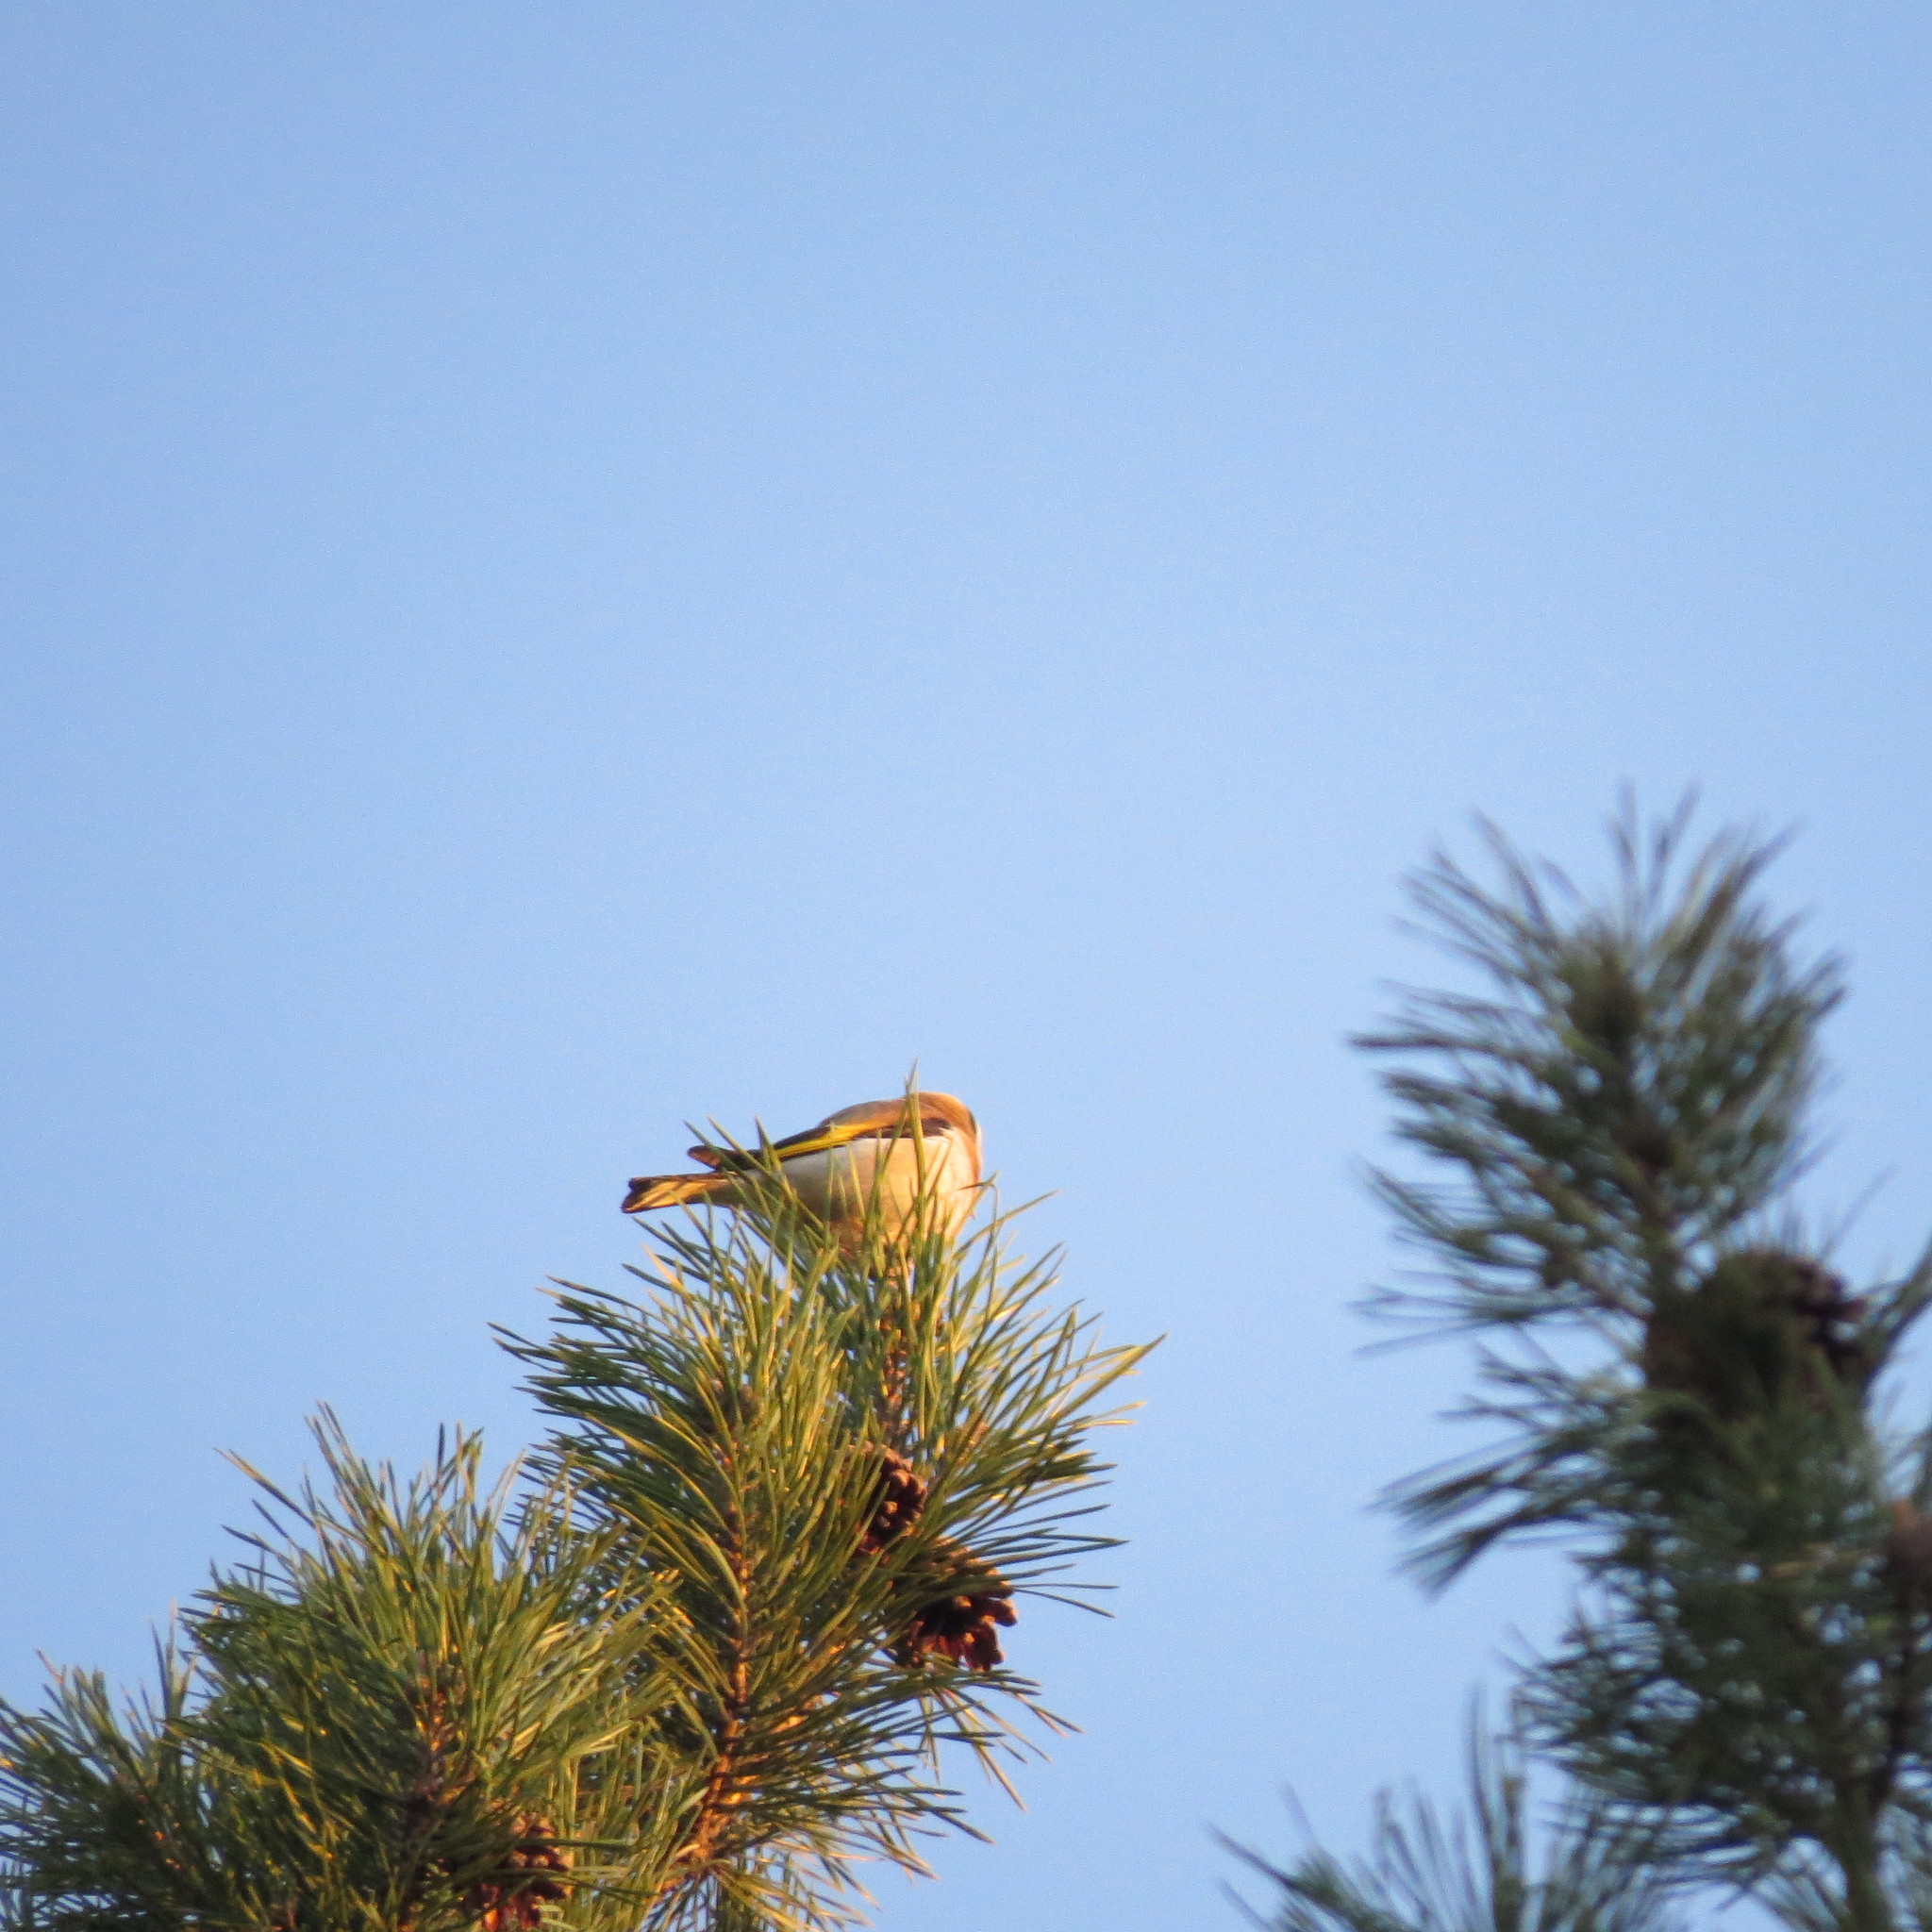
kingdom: Animalia
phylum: Chordata
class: Aves
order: Passeriformes
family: Fringillidae
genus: Carduelis
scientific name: Carduelis carduelis
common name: European goldfinch
